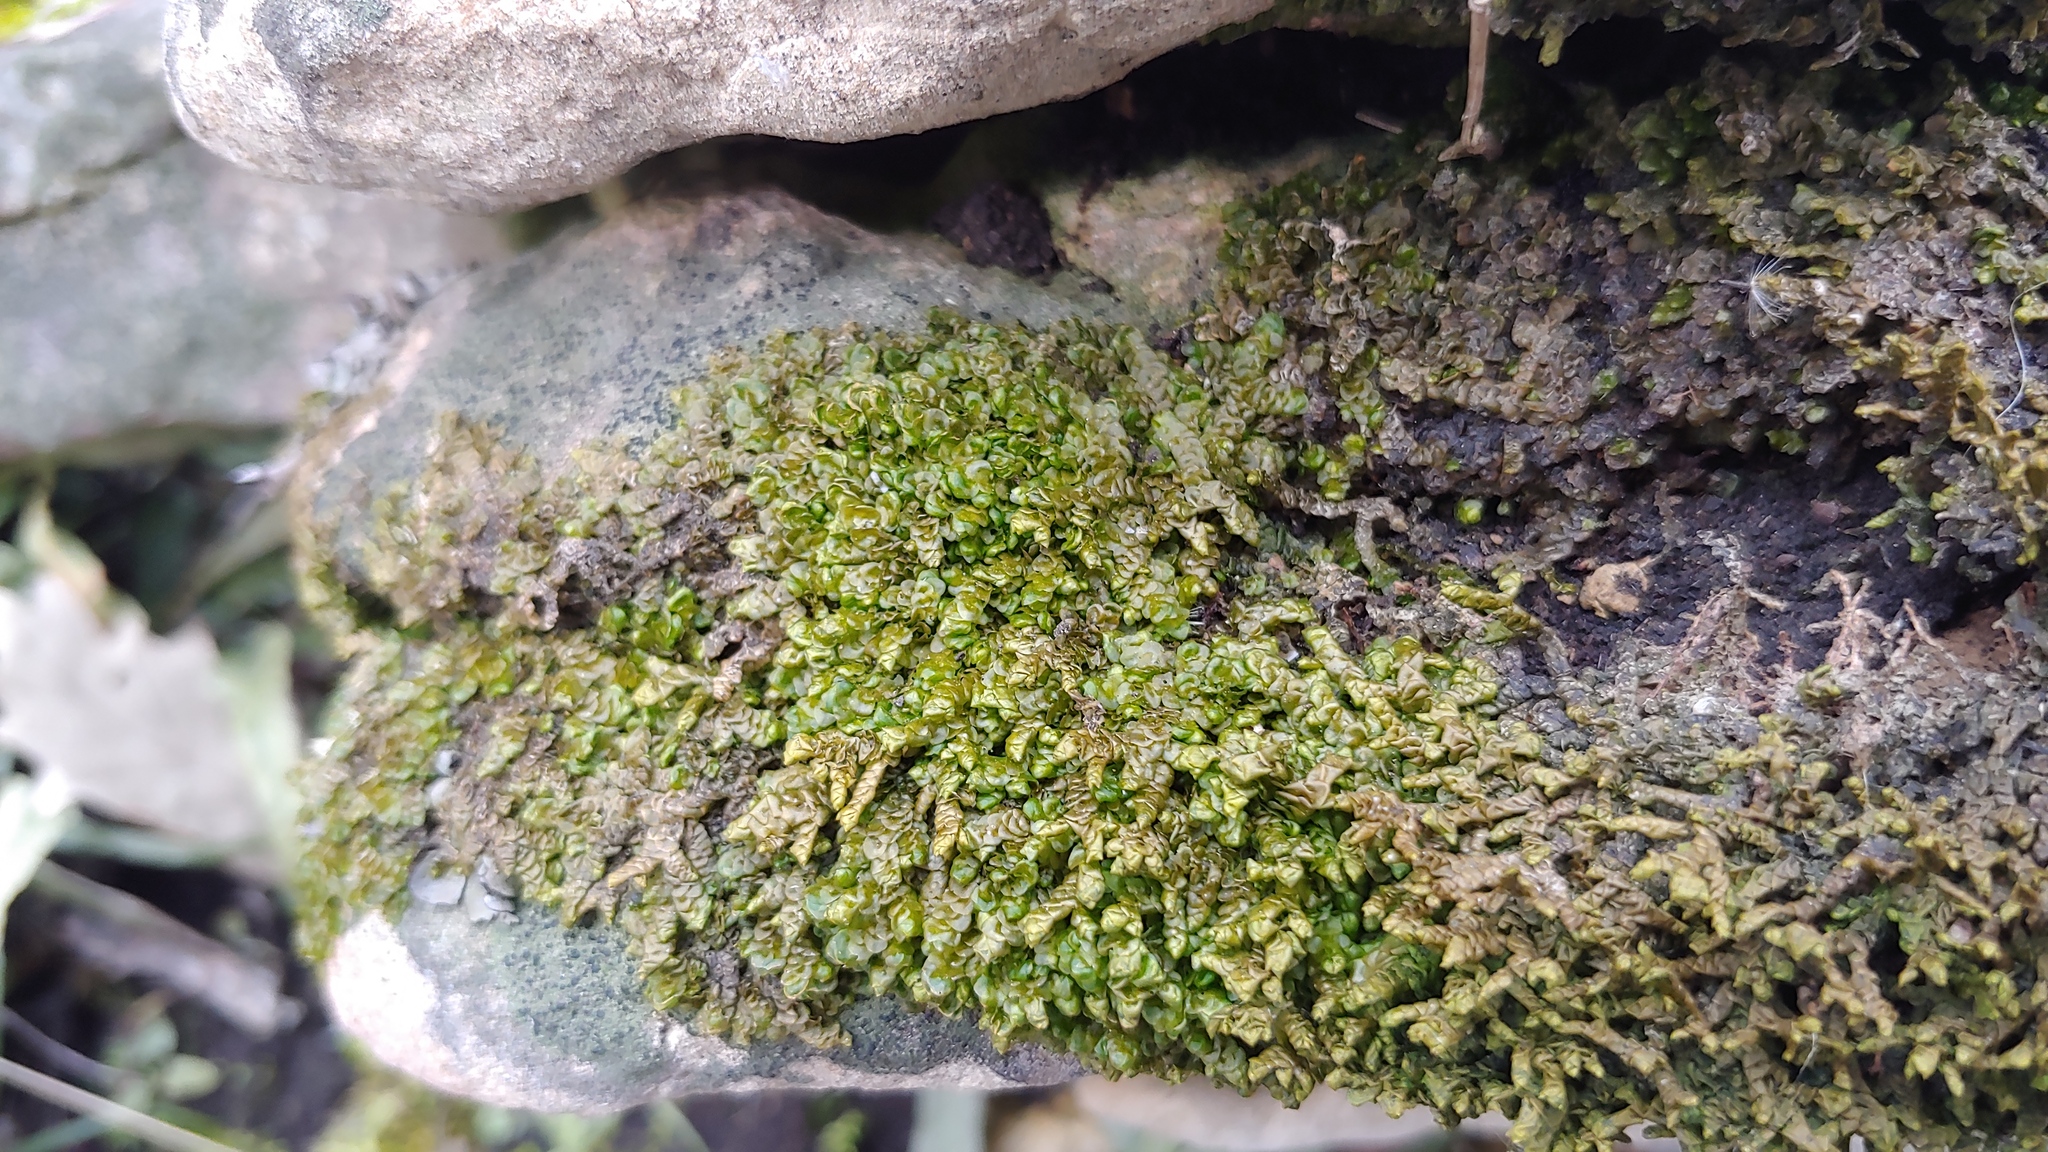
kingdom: Plantae
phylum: Marchantiophyta
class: Jungermanniopsida
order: Porellales
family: Porellaceae
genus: Porella
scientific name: Porella platyphylla
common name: Wall scalewort
